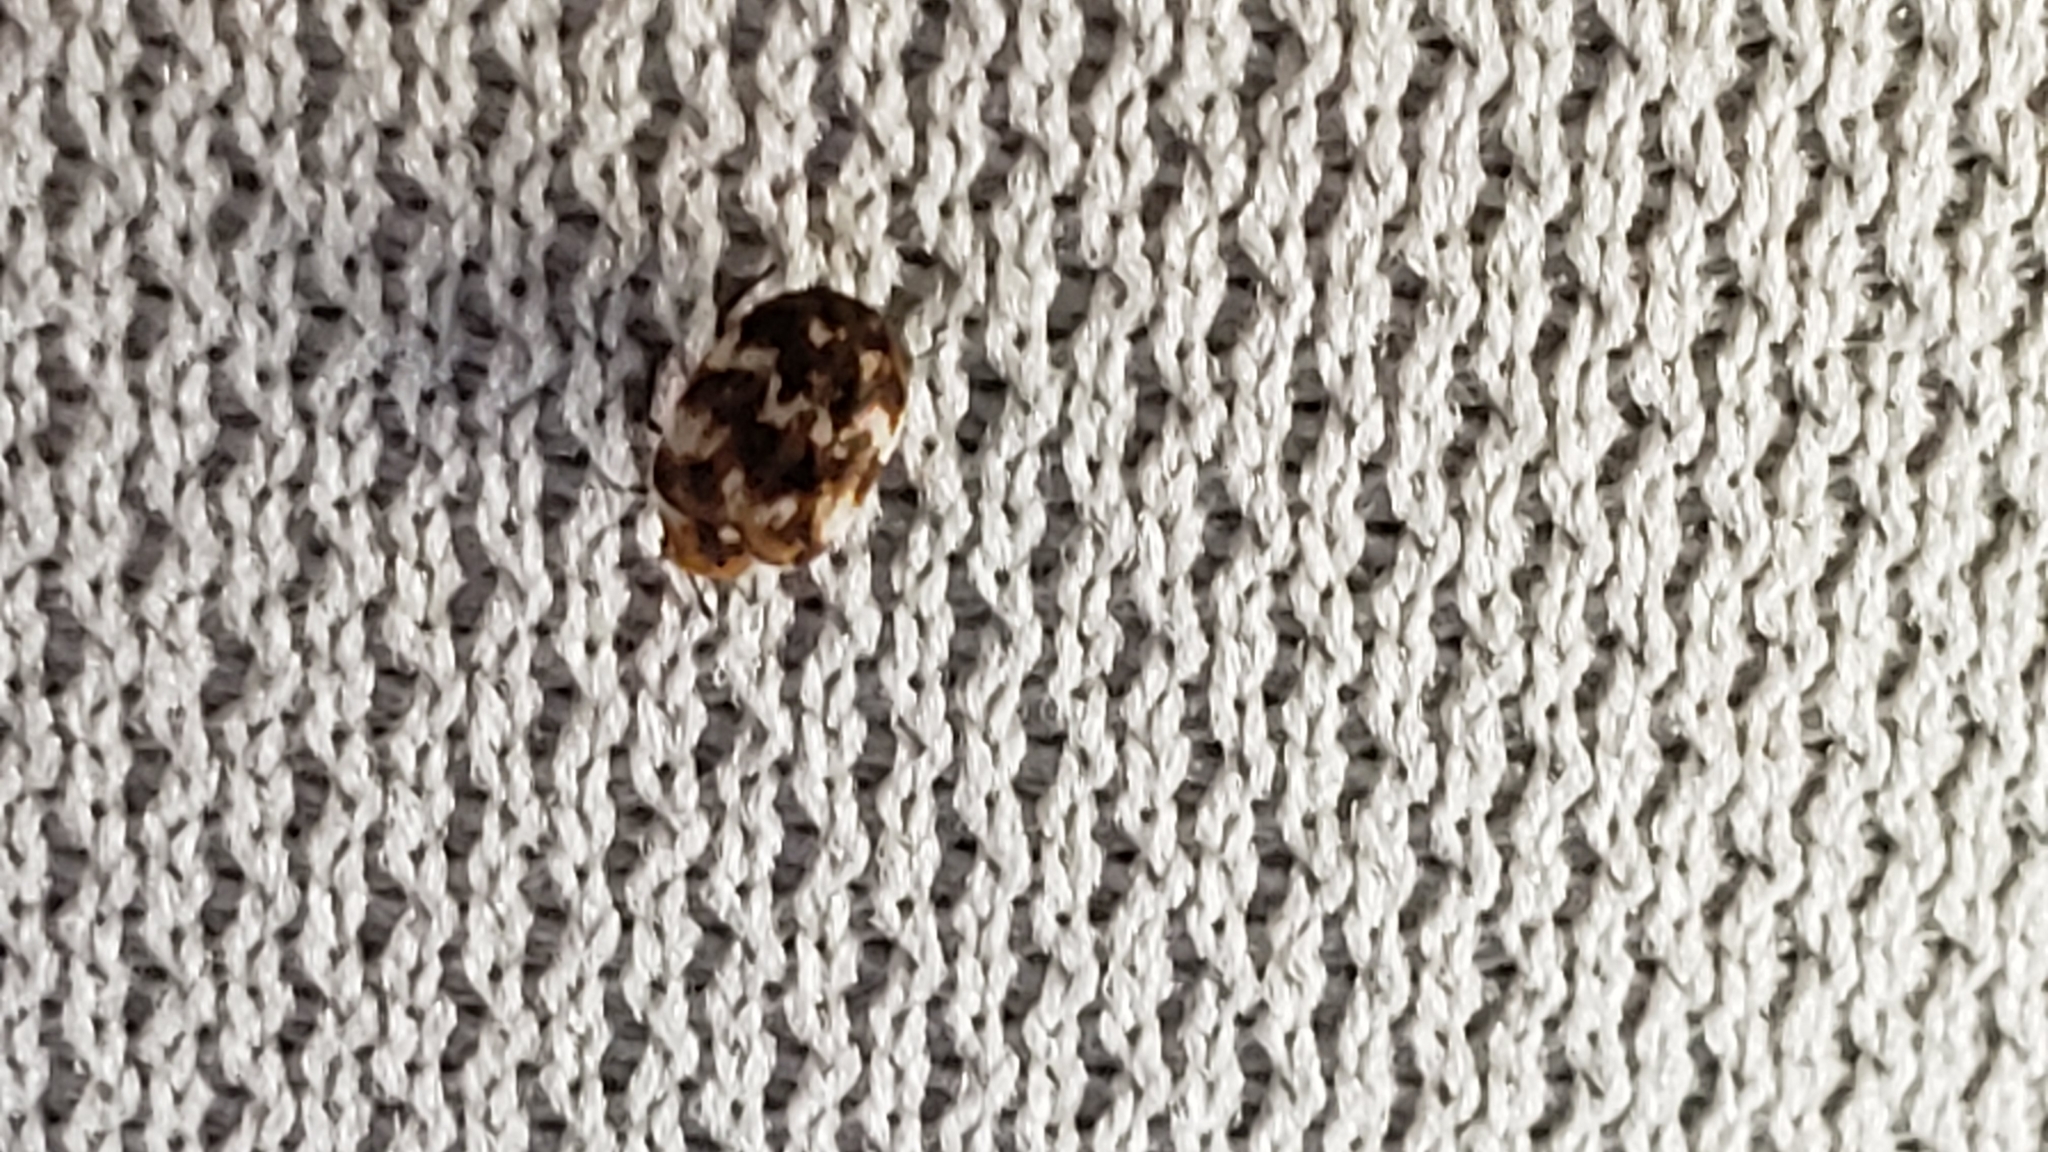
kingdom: Animalia
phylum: Arthropoda
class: Insecta
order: Coleoptera
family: Dermestidae
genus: Anthrenus
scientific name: Anthrenus verbasci
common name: Varied carpet beetle
